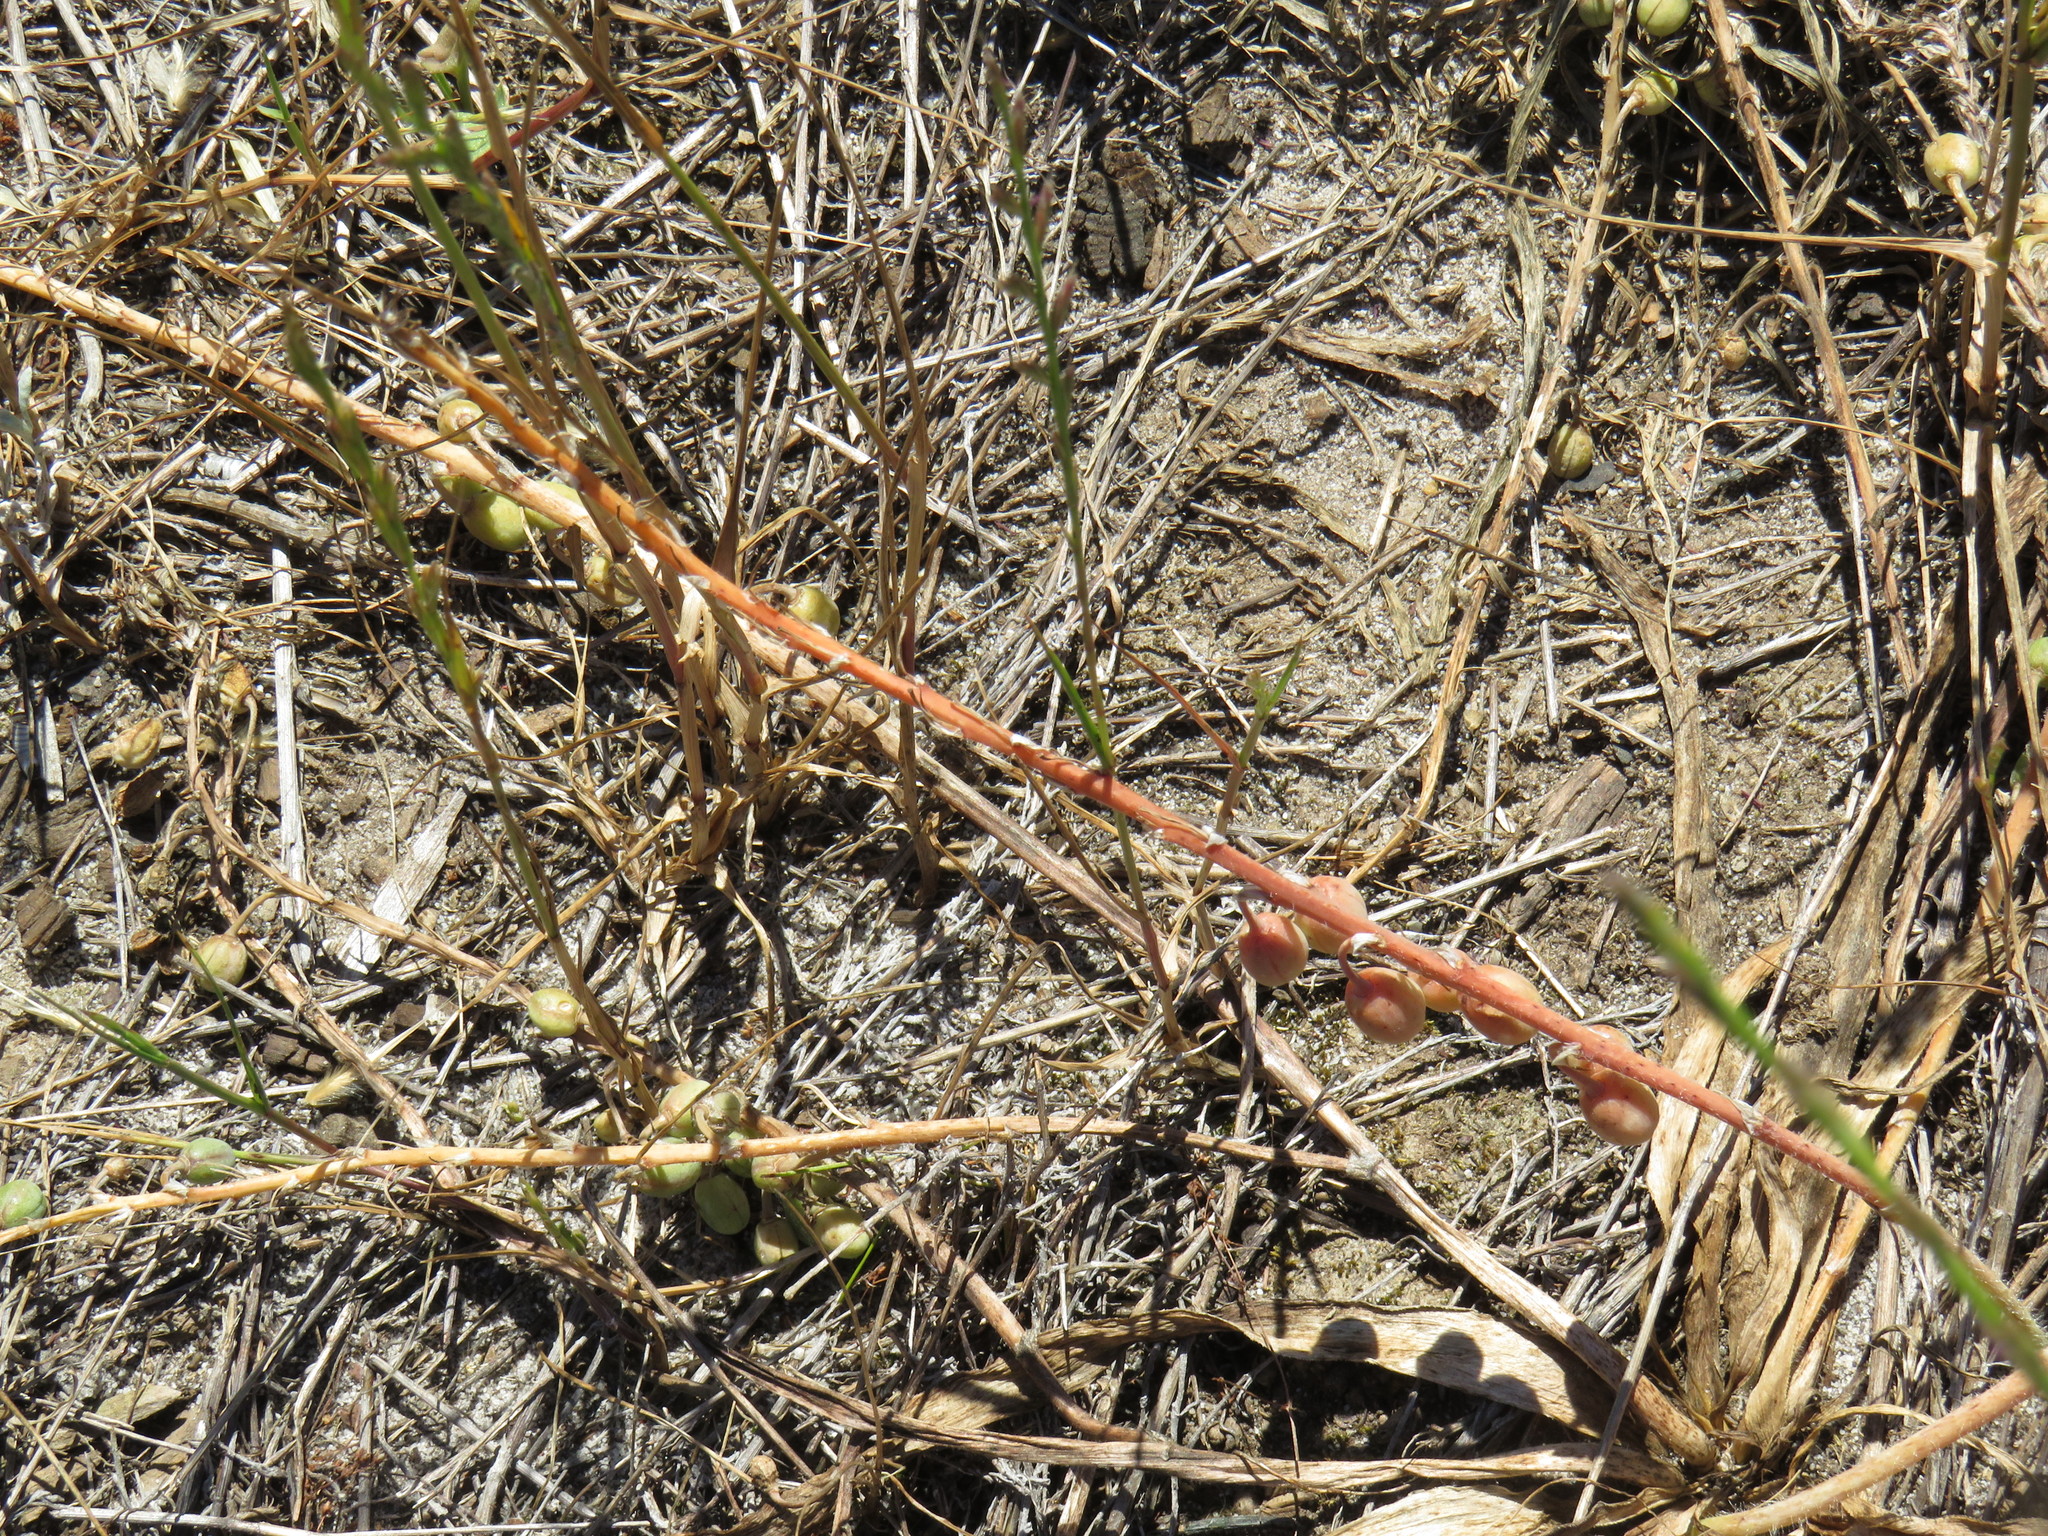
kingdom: Plantae
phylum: Tracheophyta
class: Liliopsida
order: Asparagales
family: Asphodelaceae
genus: Trachyandra
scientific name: Trachyandra ciliata
